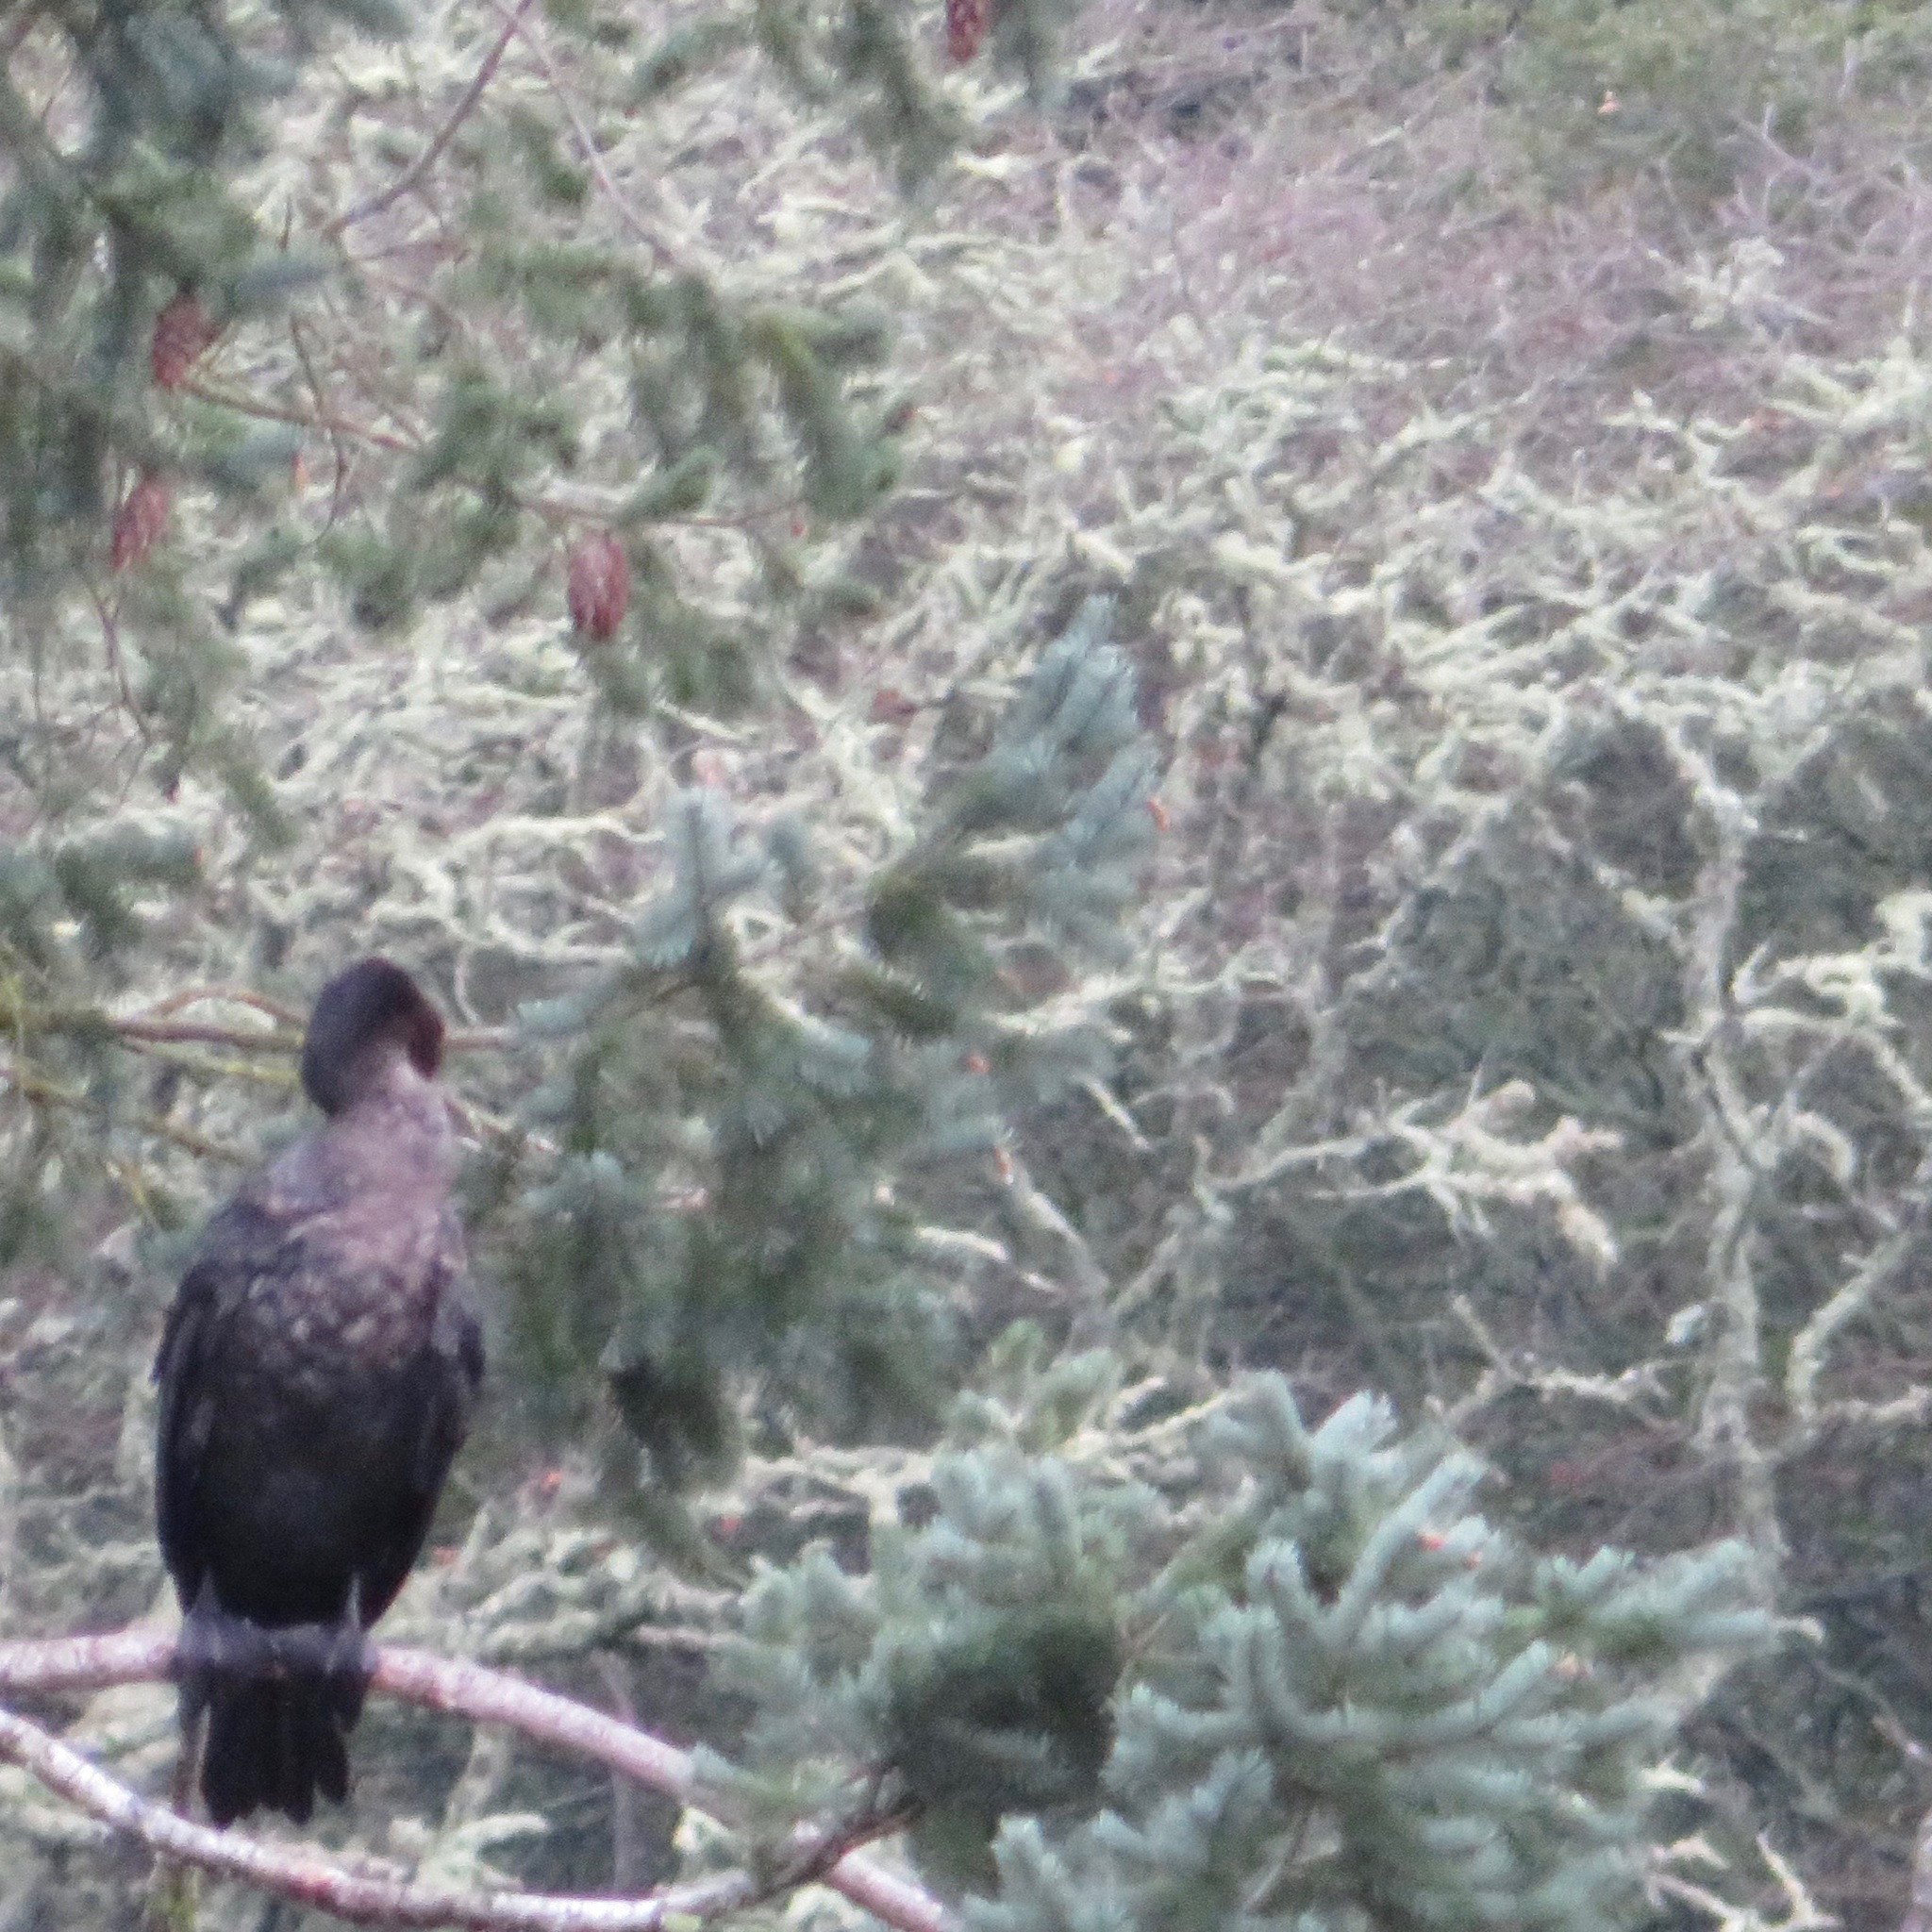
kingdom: Animalia
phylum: Chordata
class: Aves
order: Suliformes
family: Phalacrocoracidae
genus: Phalacrocorax
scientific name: Phalacrocorax auritus
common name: Double-crested cormorant
